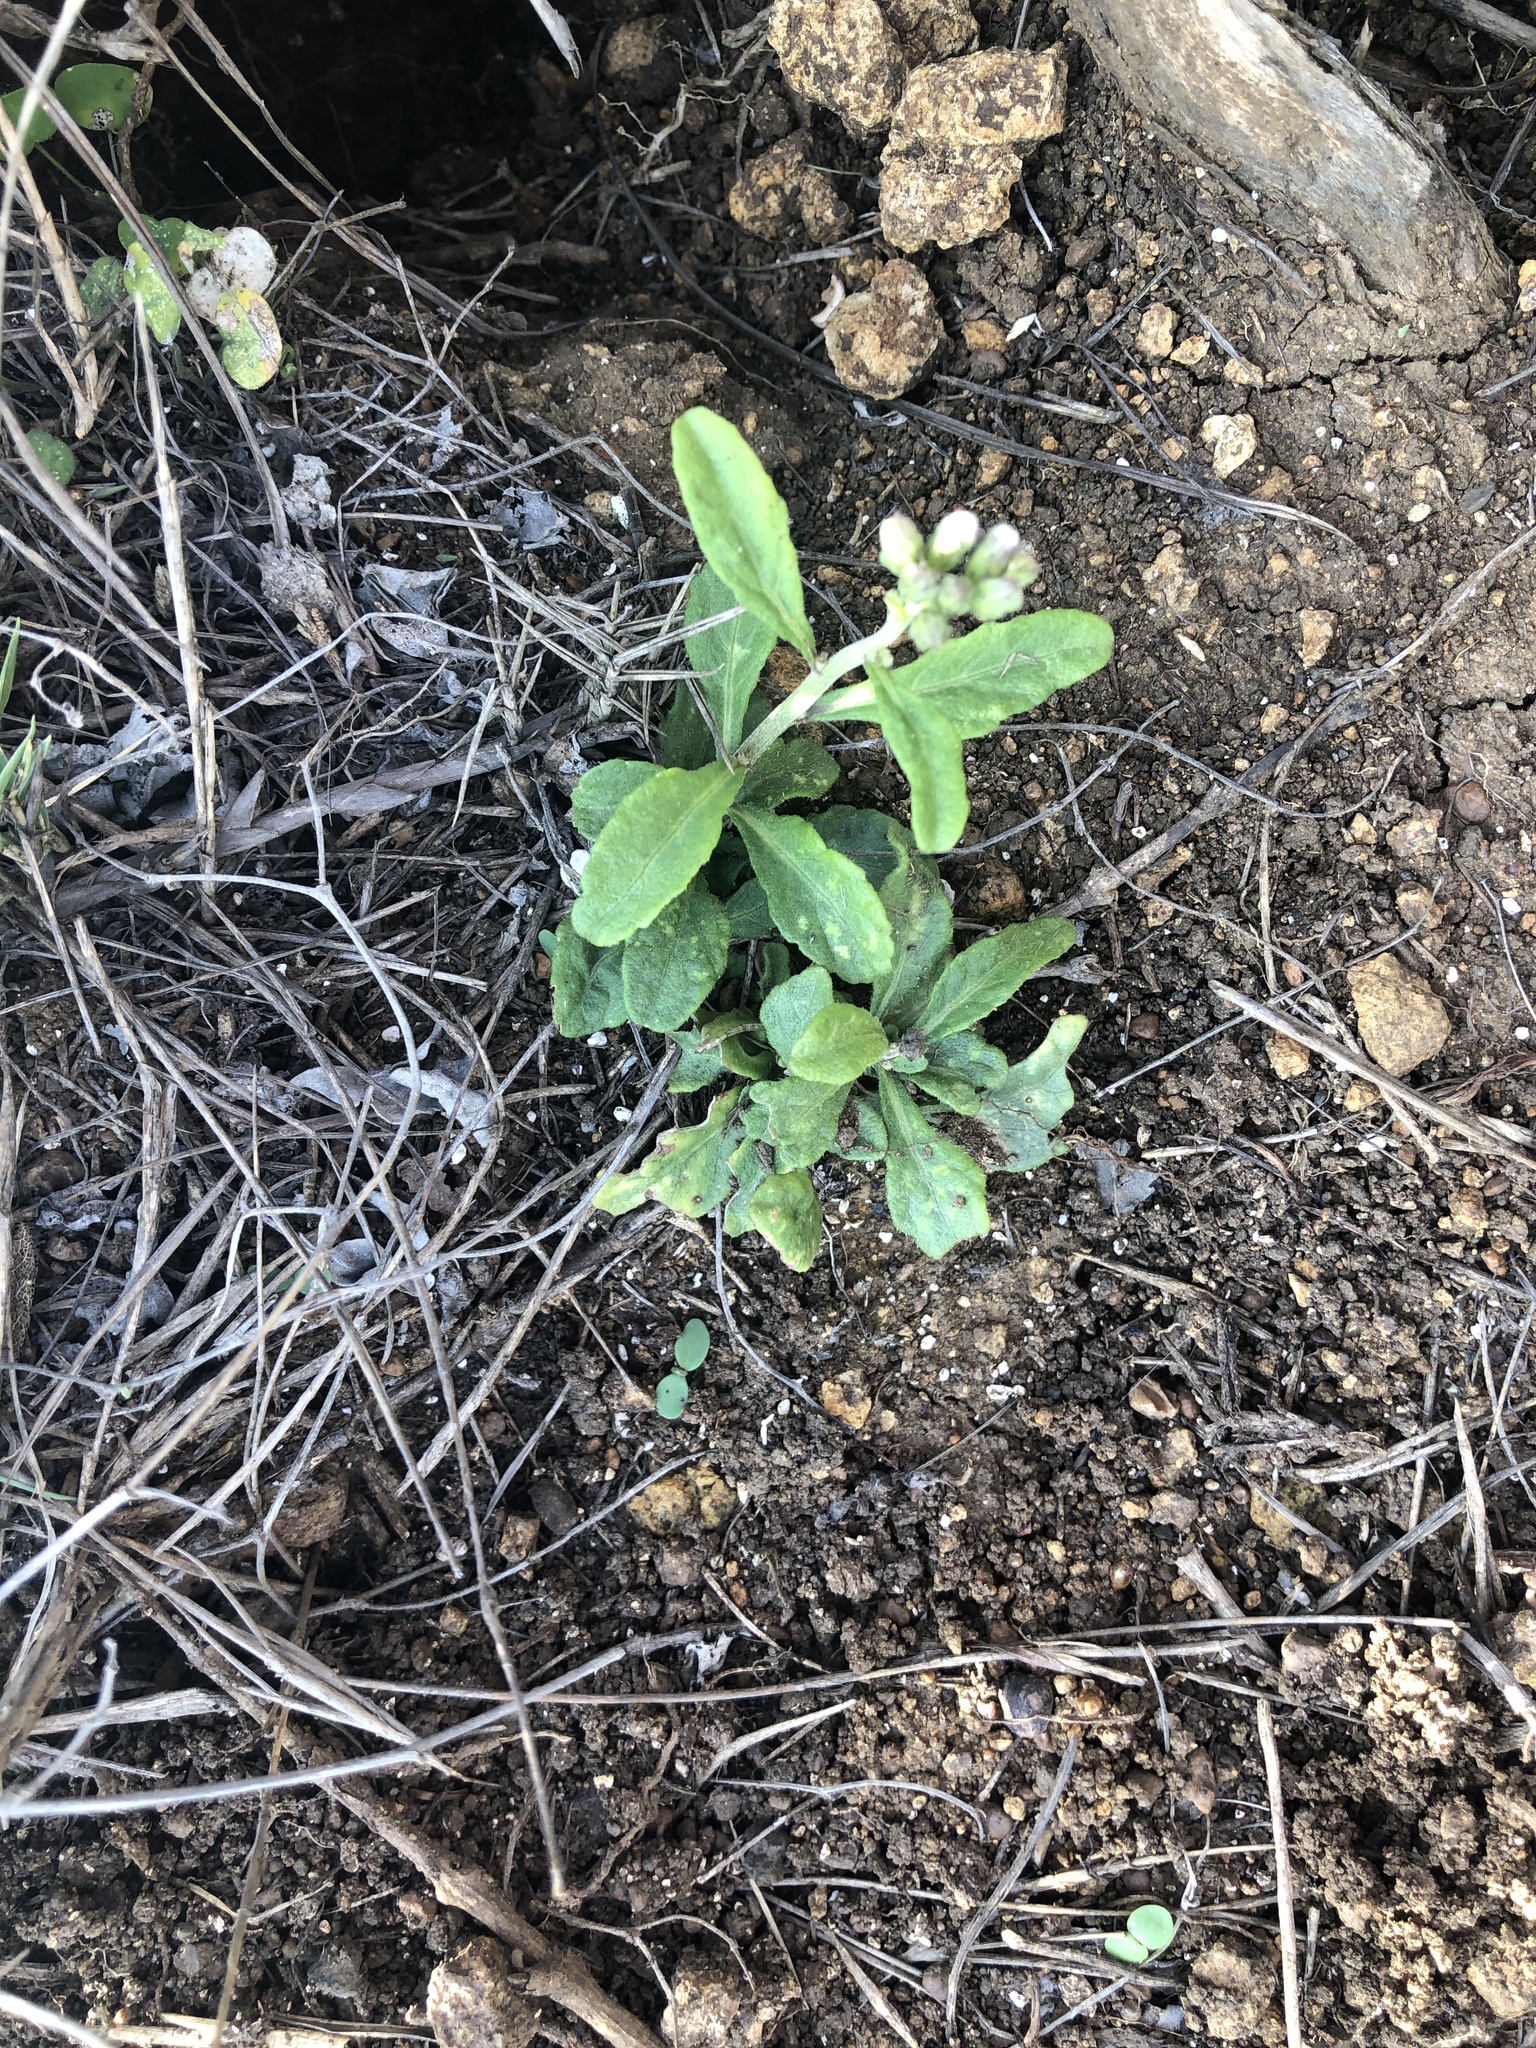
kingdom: Plantae
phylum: Tracheophyta
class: Magnoliopsida
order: Asterales
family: Asteraceae
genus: Cyanthillium
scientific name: Cyanthillium cinereum
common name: Little ironweed
